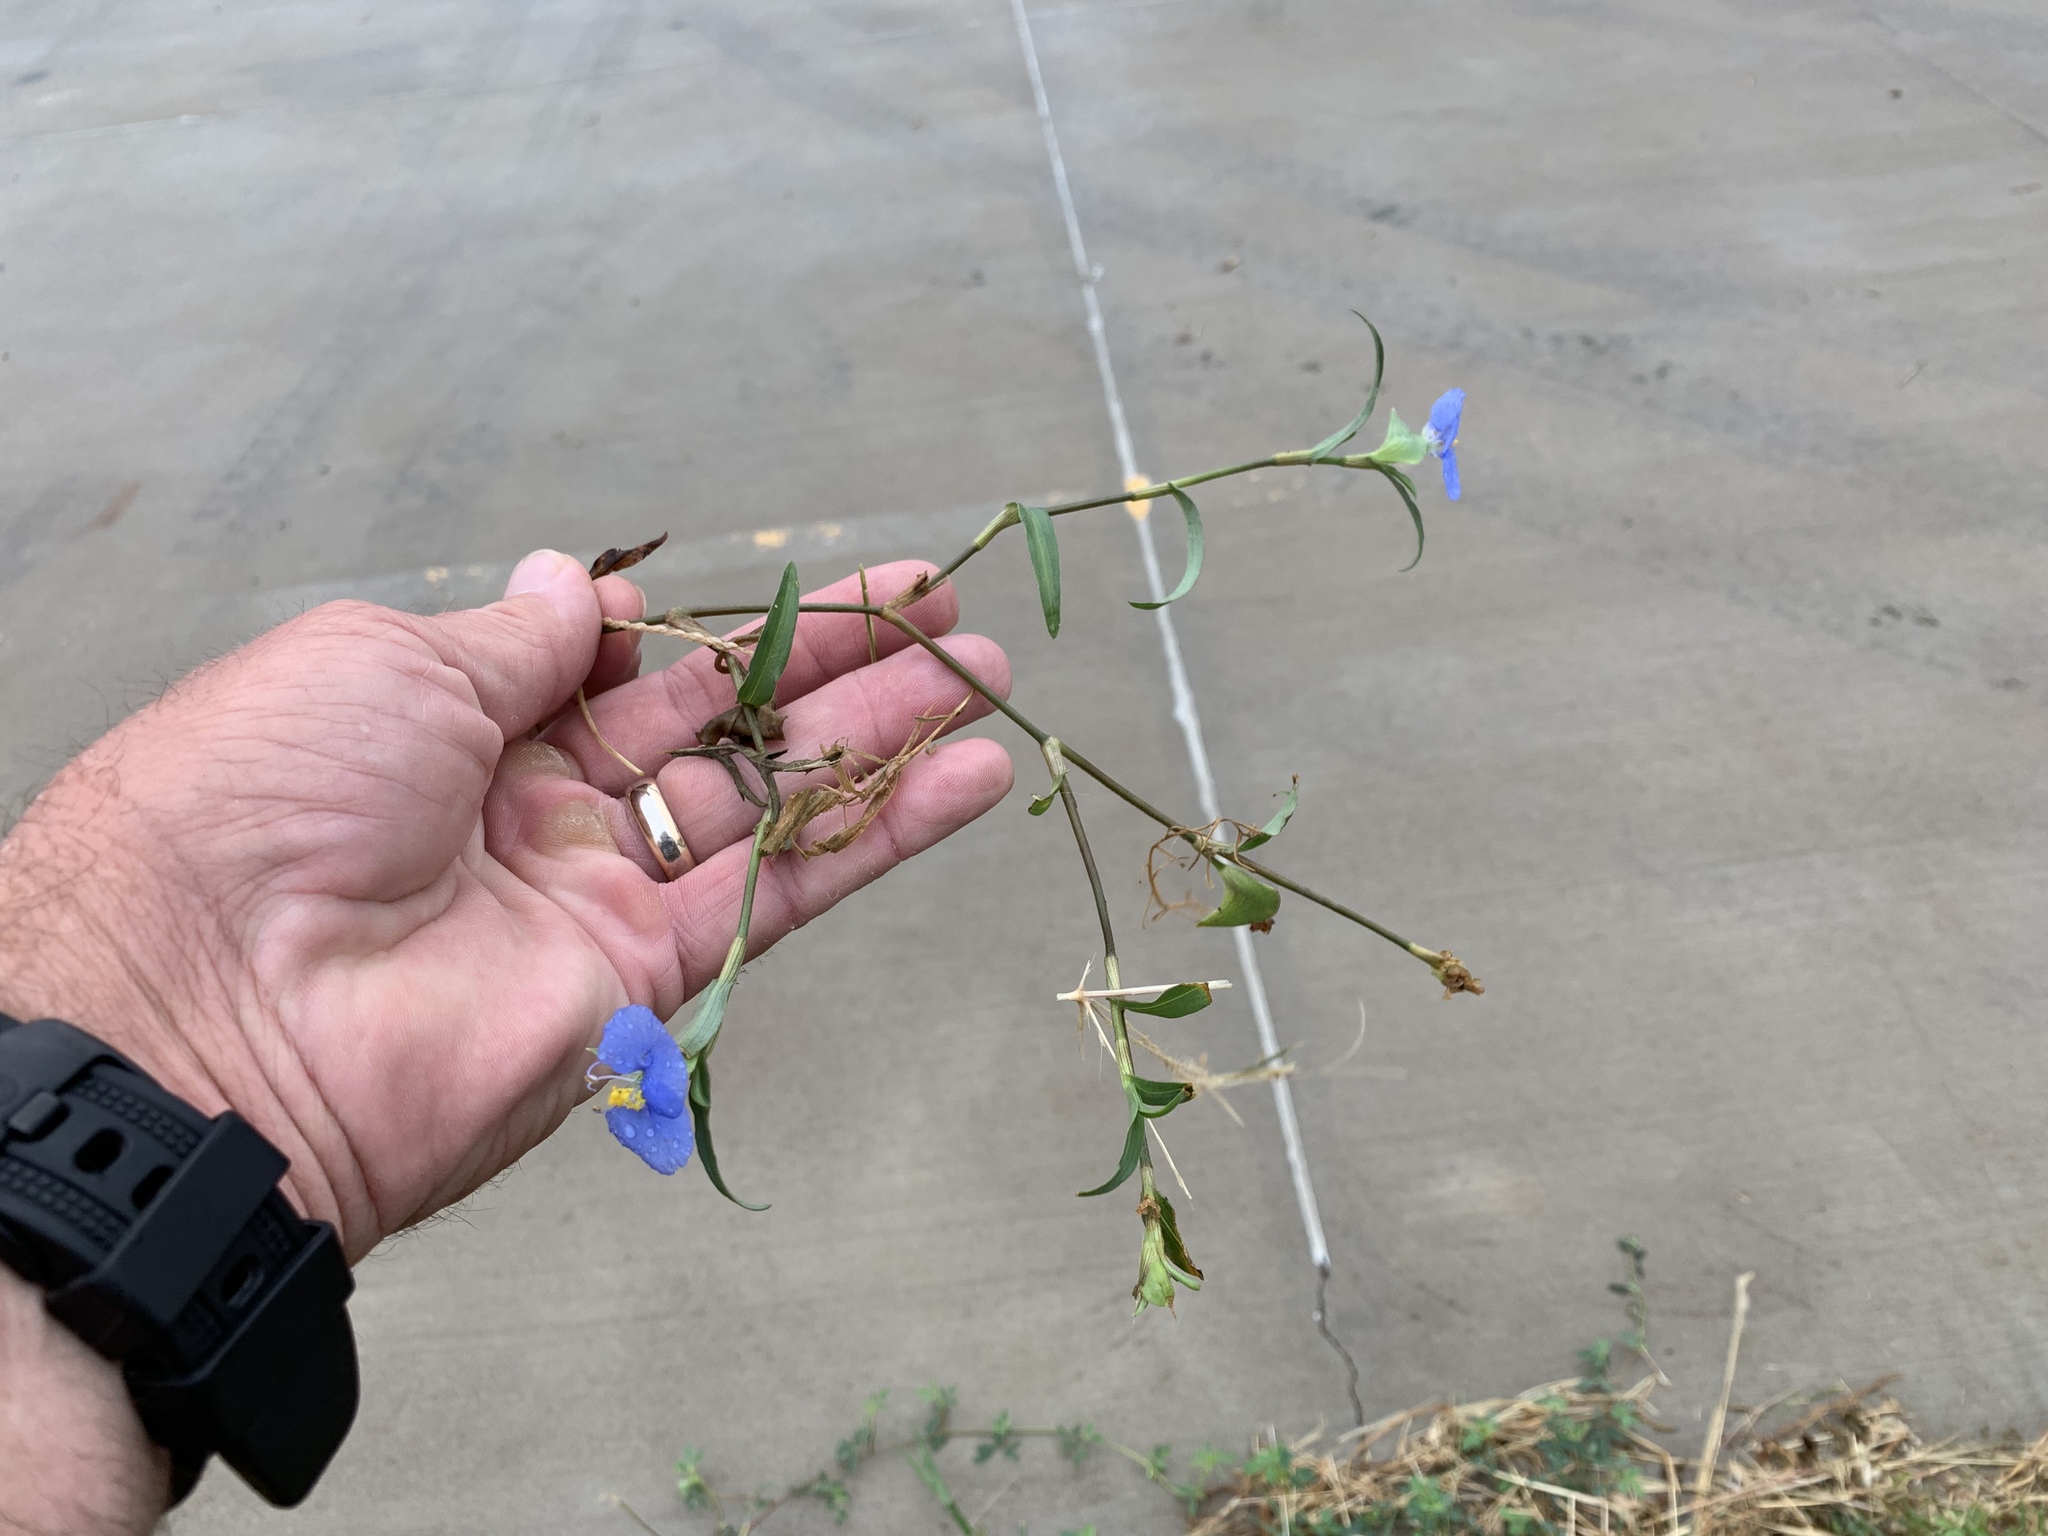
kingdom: Plantae
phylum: Tracheophyta
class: Liliopsida
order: Commelinales
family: Commelinaceae
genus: Commelina
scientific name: Commelina erecta
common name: Blousel blommetjie
